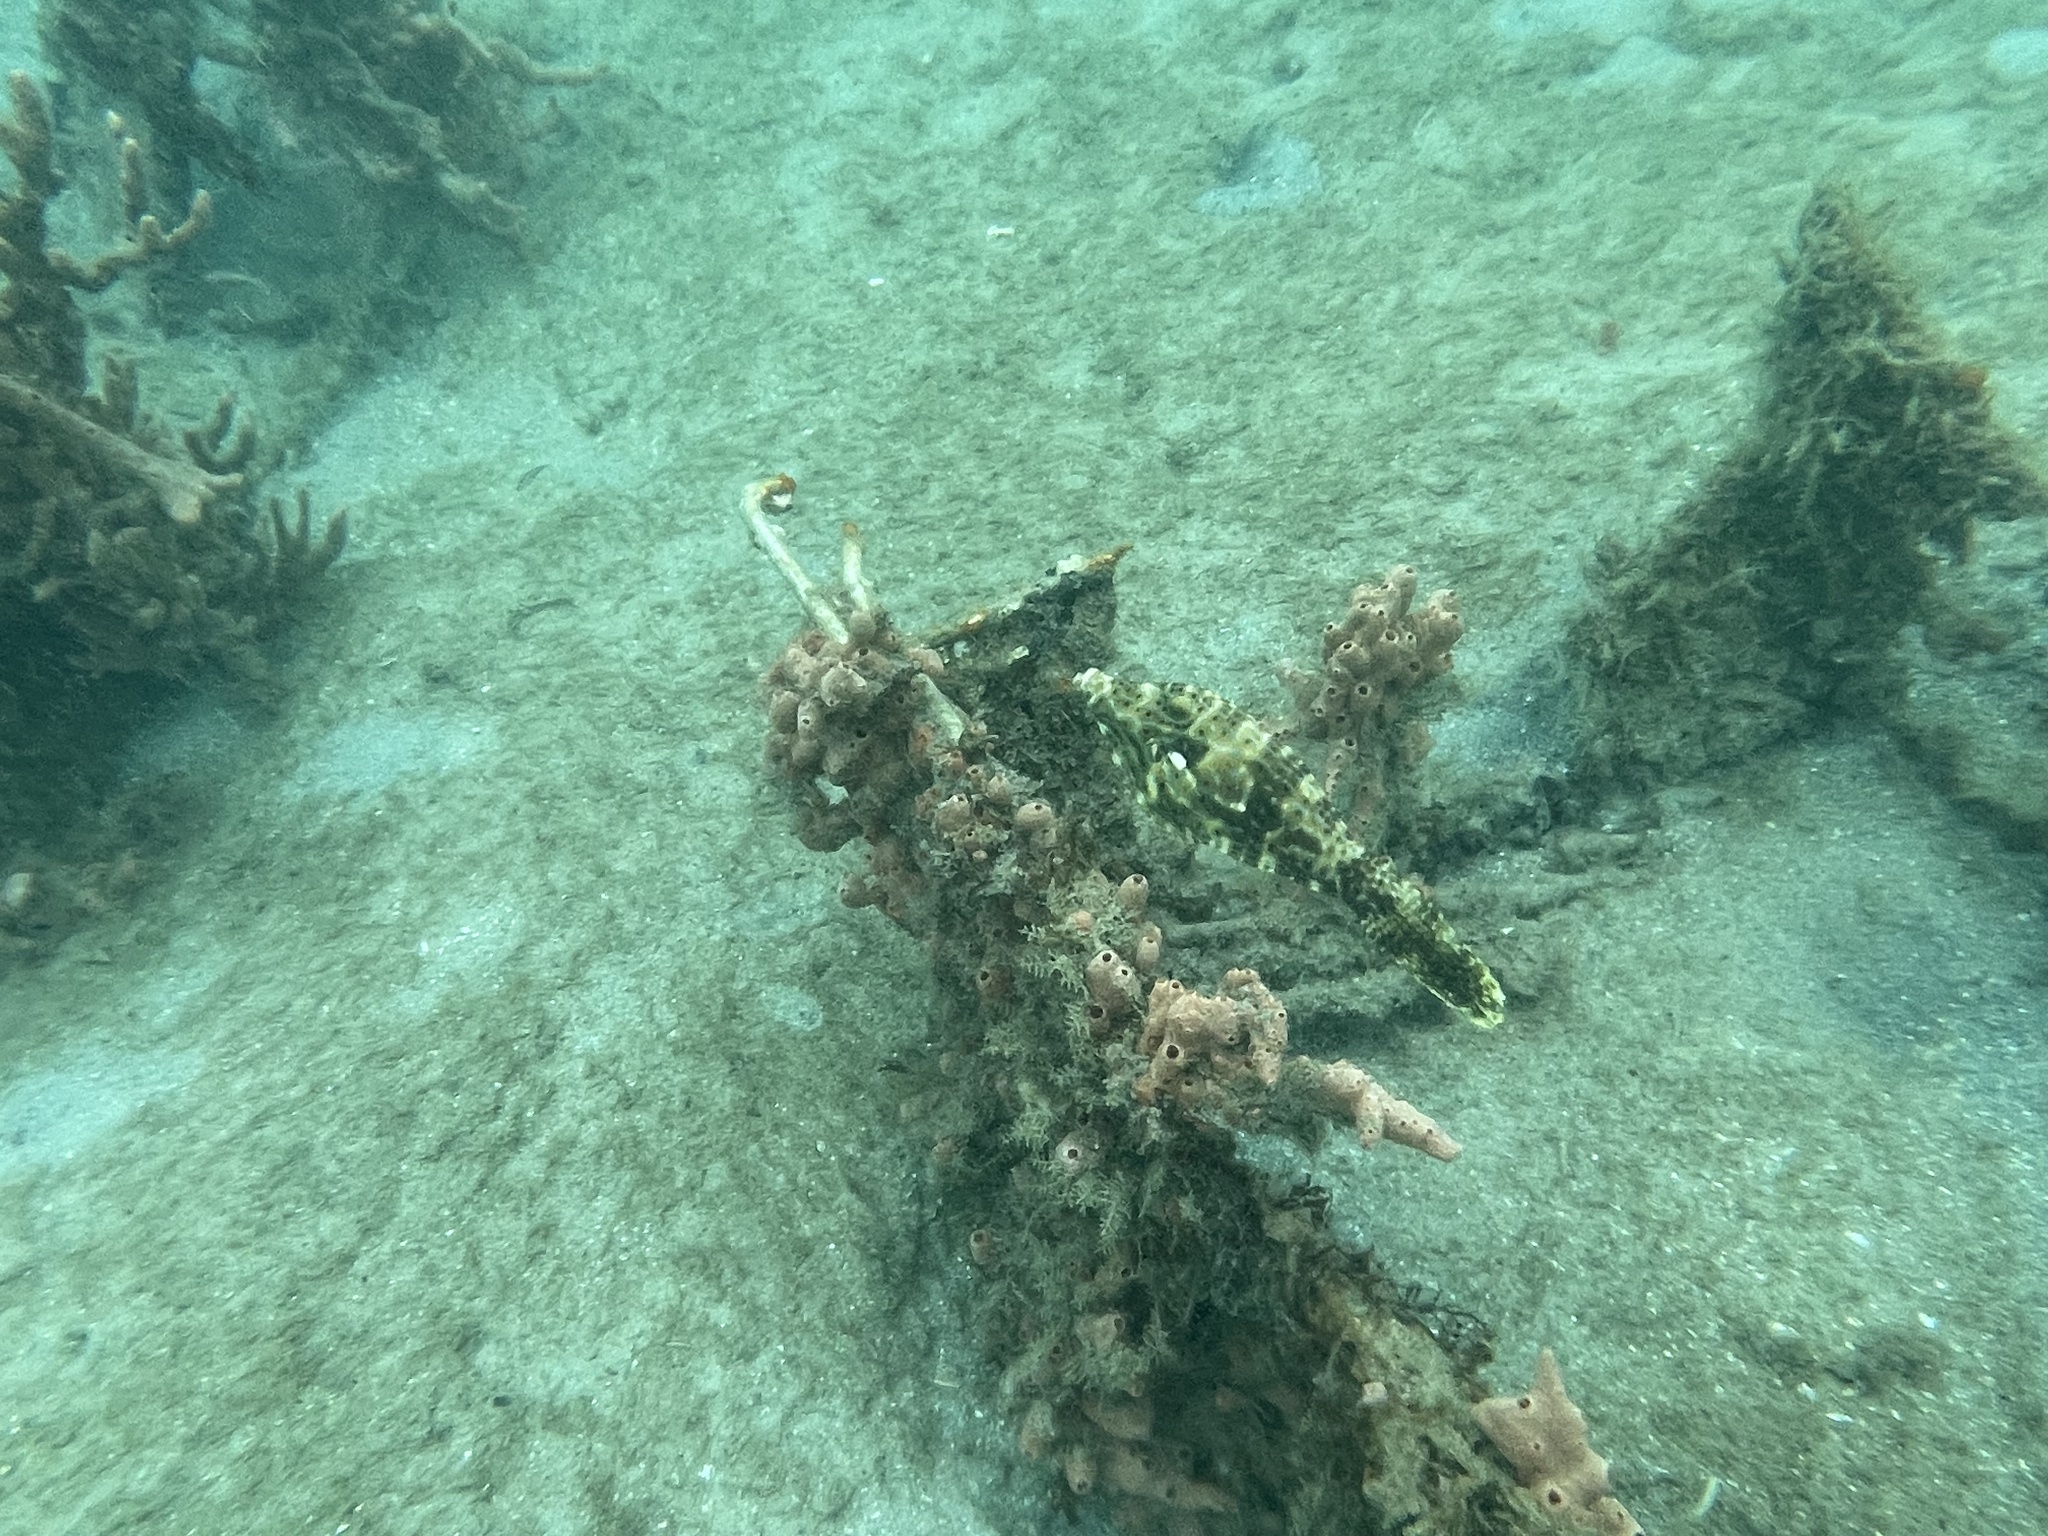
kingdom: Animalia
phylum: Chordata
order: Tetraodontiformes
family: Monacanthidae
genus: Aluterus
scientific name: Aluterus scriptus
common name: Scribbled leatherjacket filefish
